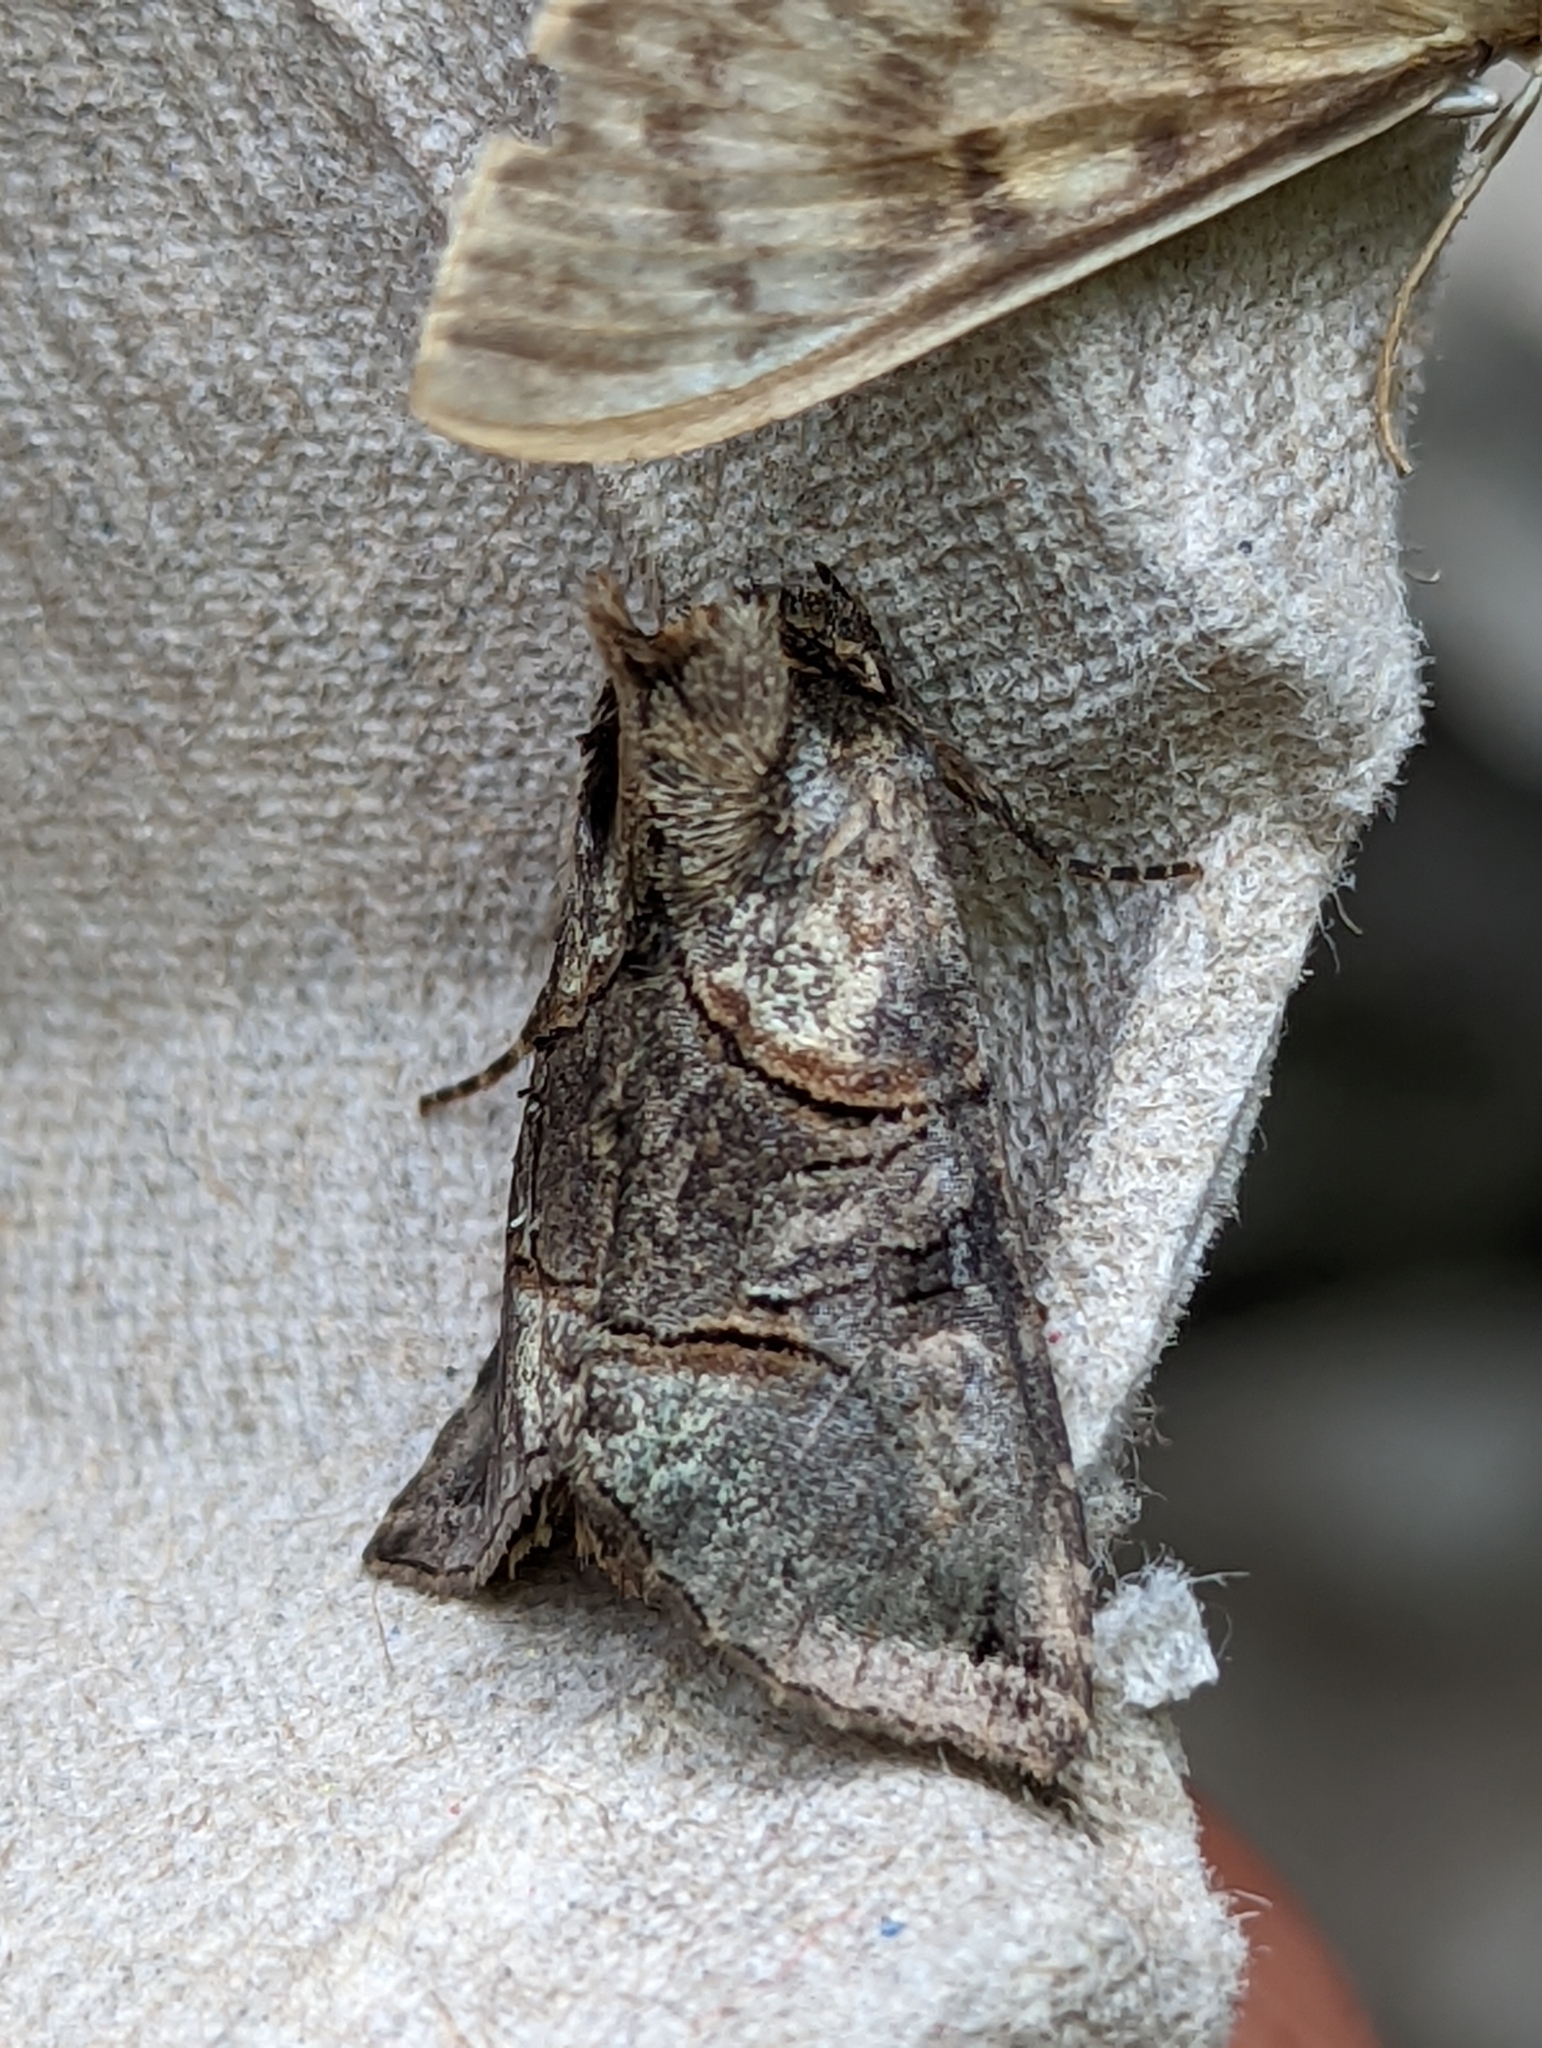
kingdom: Animalia
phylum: Arthropoda
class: Insecta
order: Lepidoptera
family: Noctuidae
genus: Abrostola
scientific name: Abrostola tripartita
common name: Spectacle
